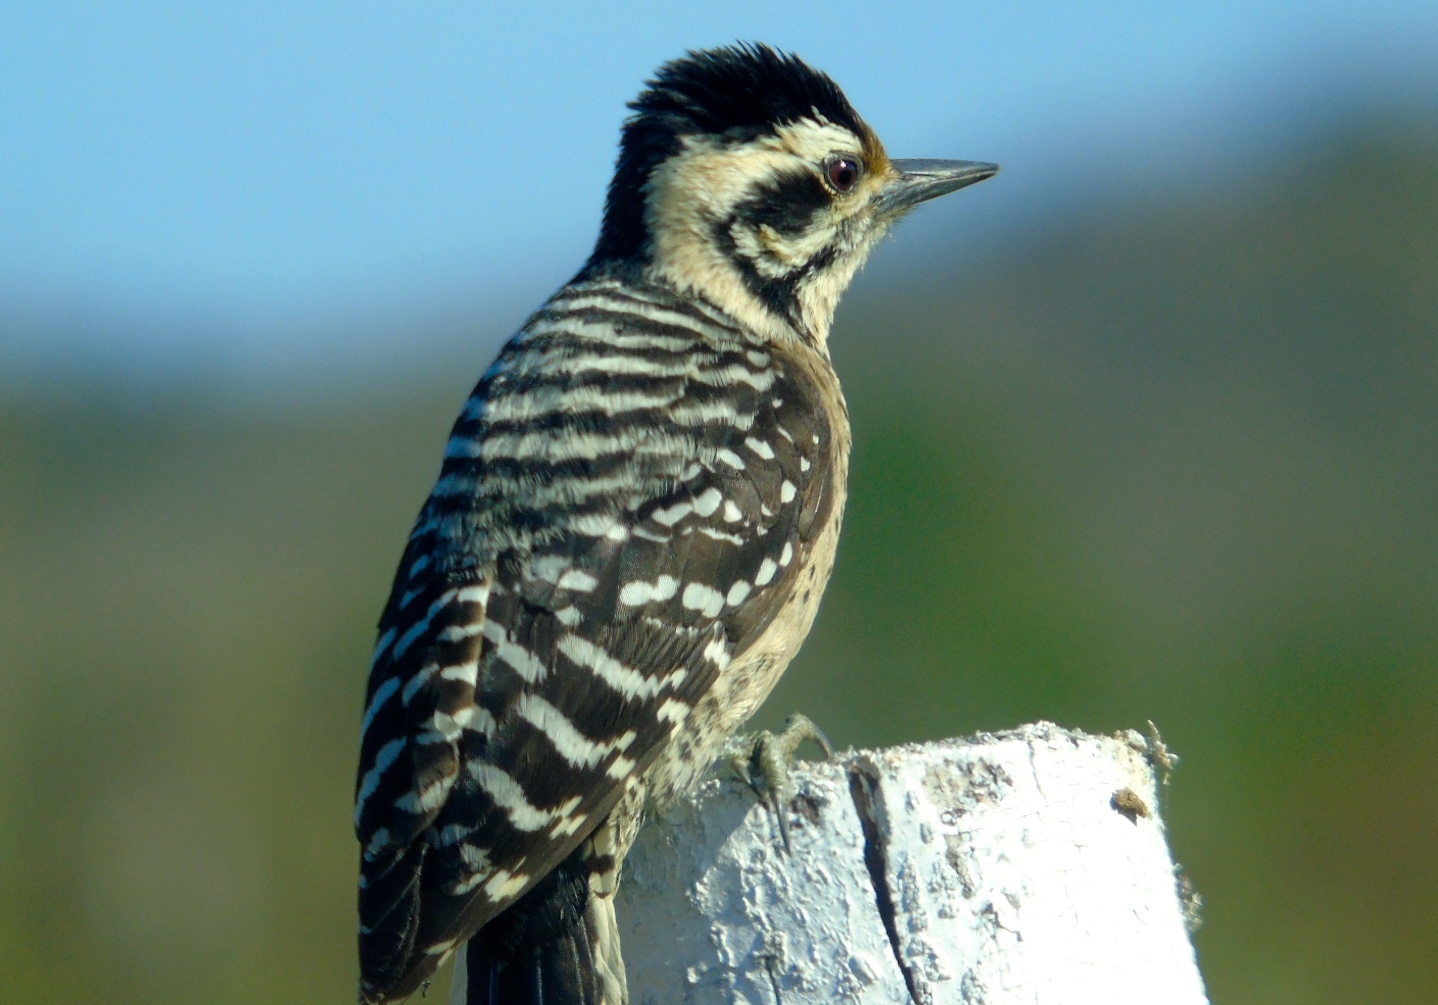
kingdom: Animalia
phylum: Chordata
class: Aves
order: Piciformes
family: Picidae
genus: Dryobates
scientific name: Dryobates scalaris
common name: Ladder-backed woodpecker
